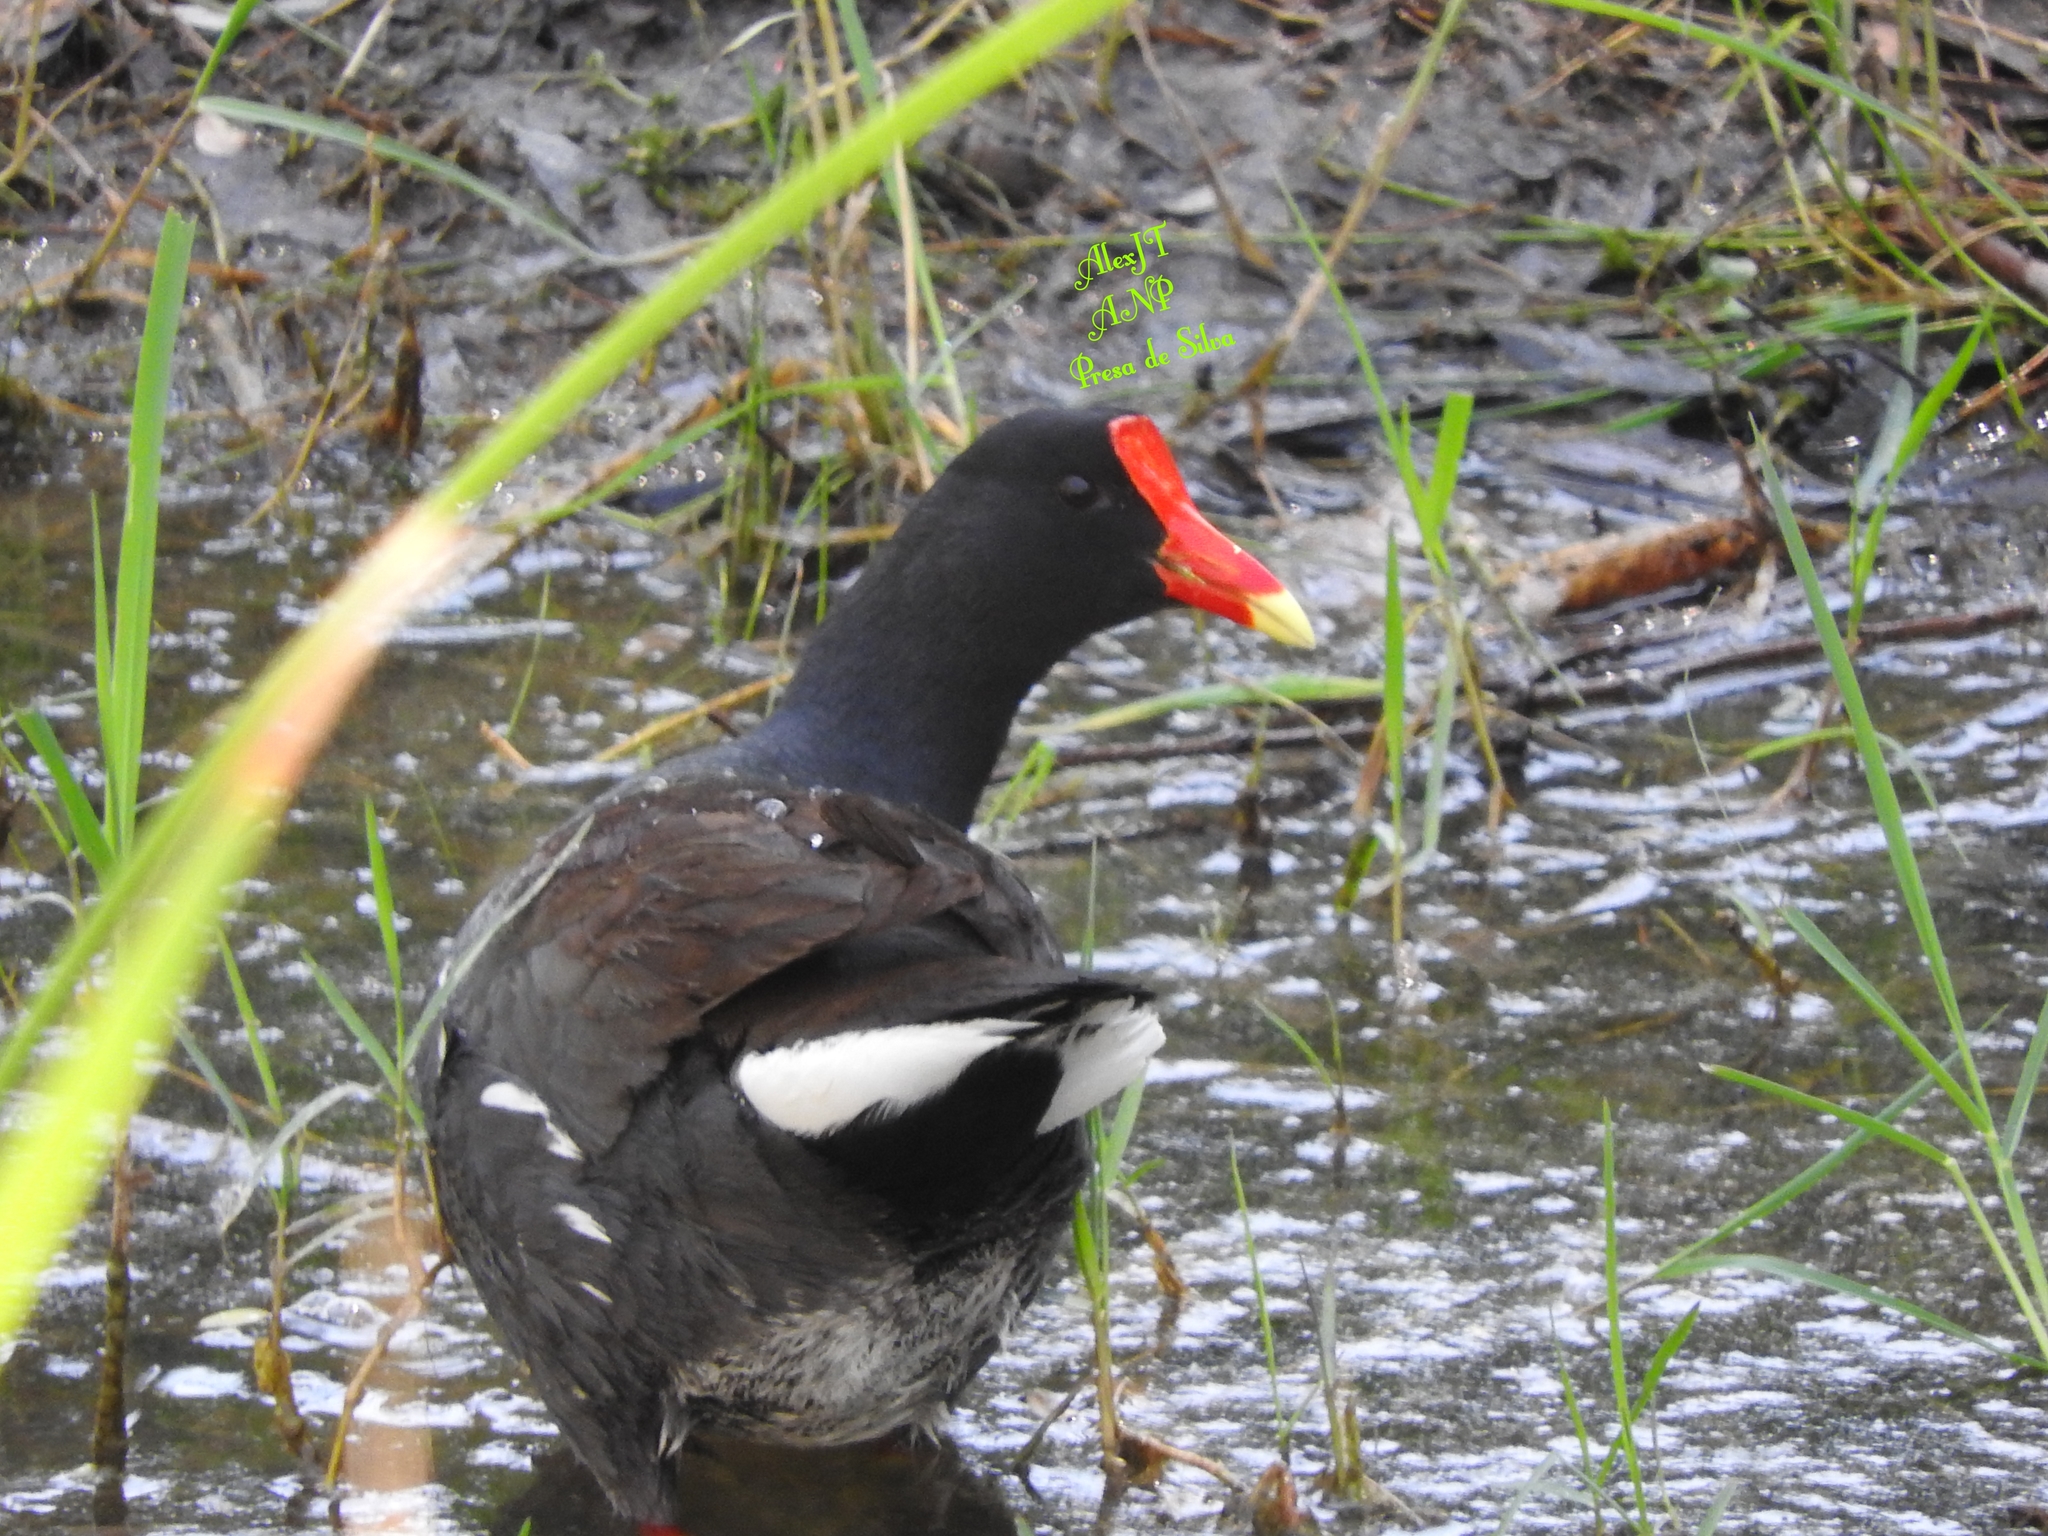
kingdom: Animalia
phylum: Chordata
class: Aves
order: Gruiformes
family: Rallidae
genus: Gallinula
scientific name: Gallinula chloropus
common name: Common moorhen
